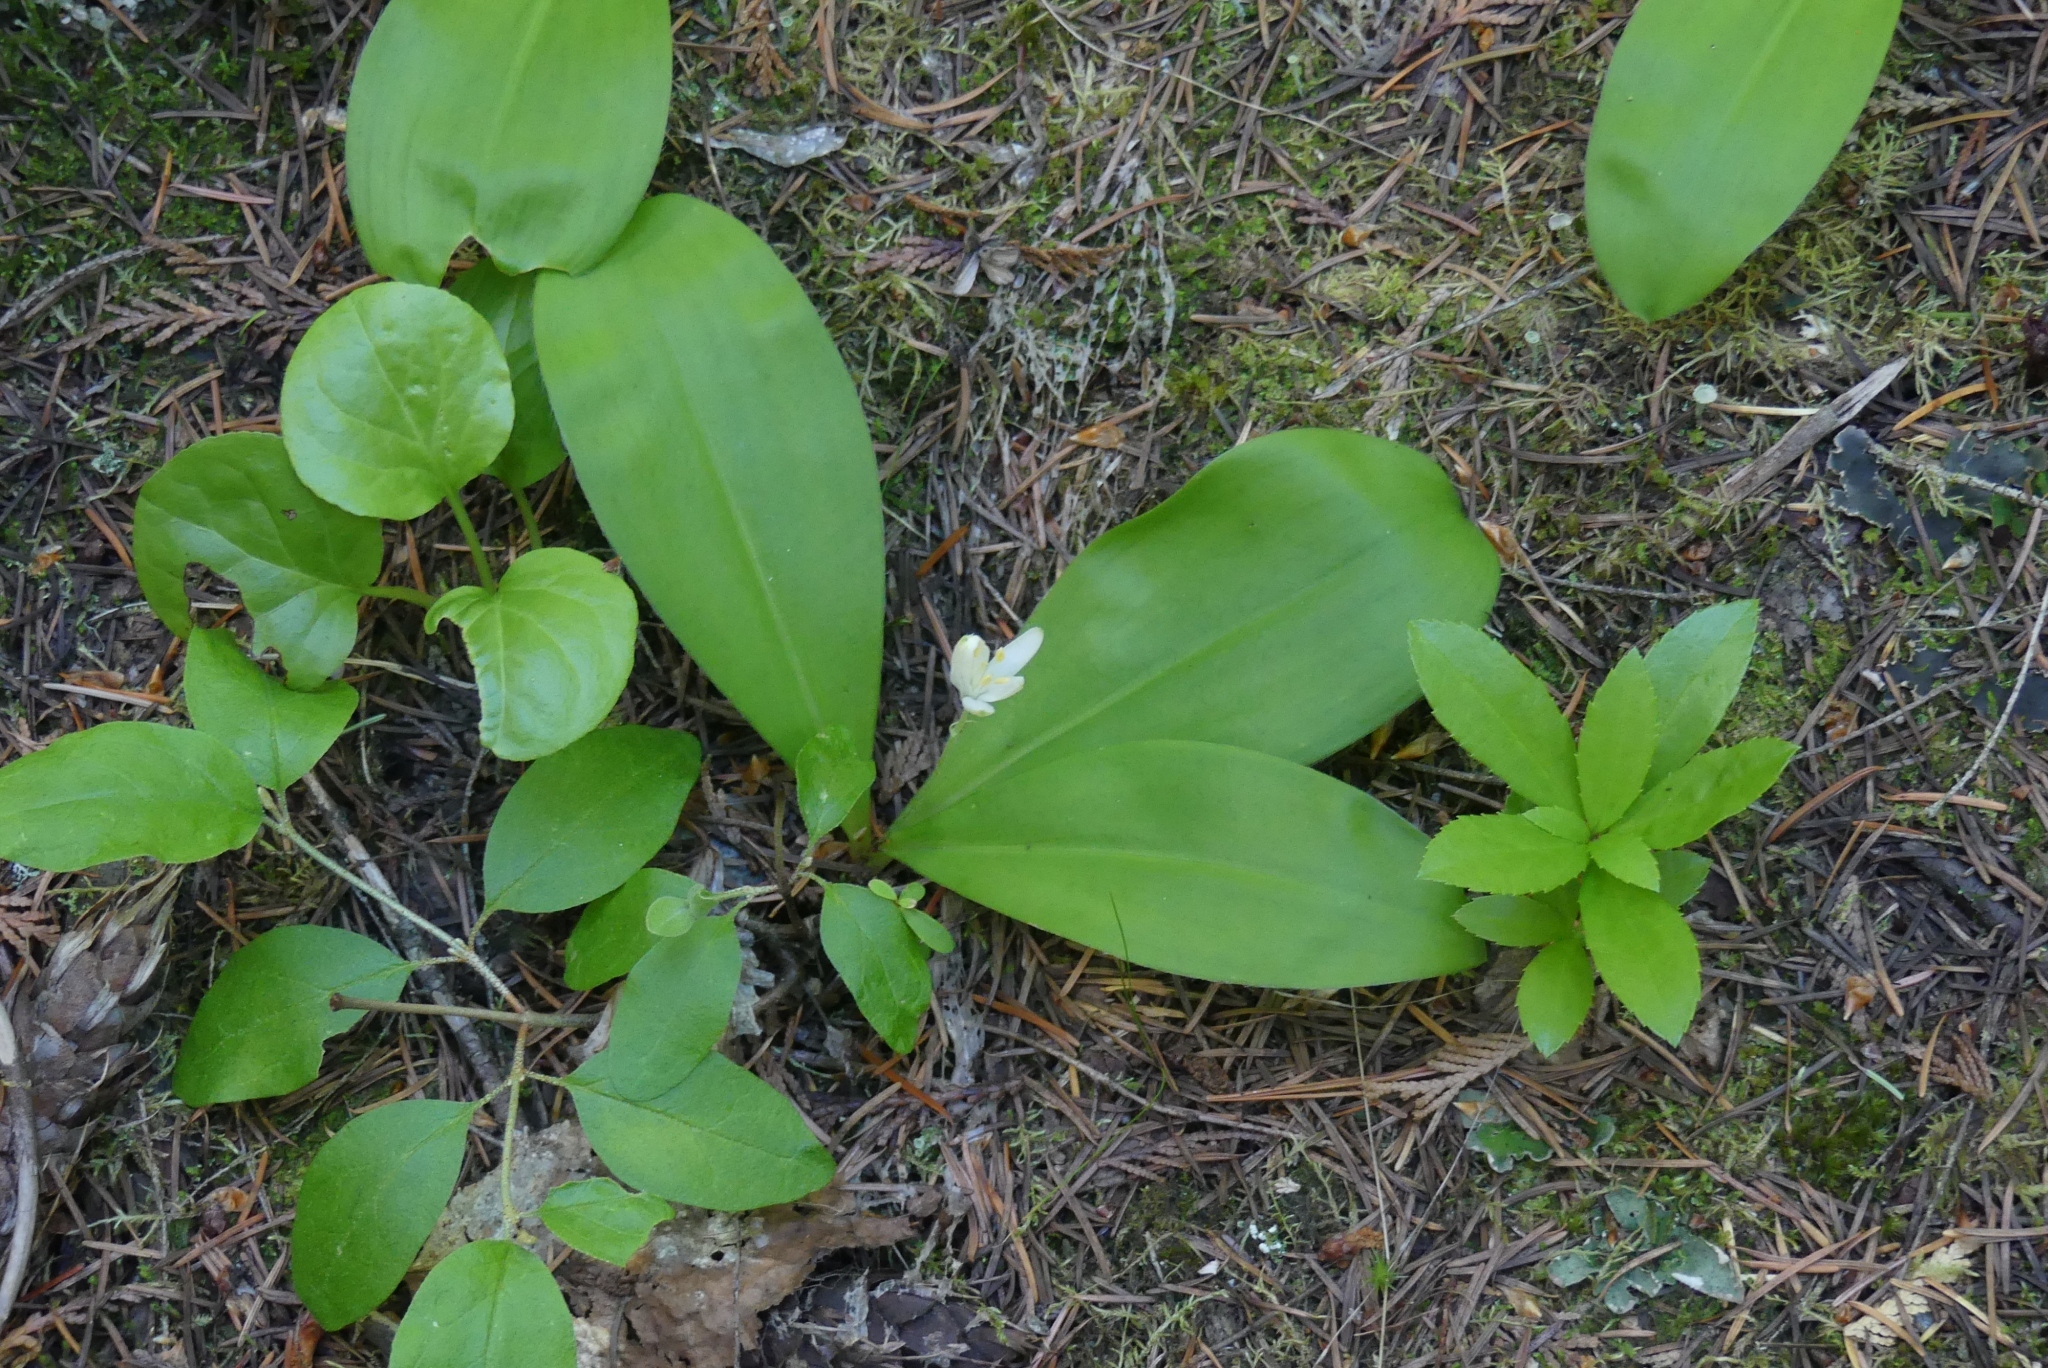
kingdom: Plantae
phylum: Tracheophyta
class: Liliopsida
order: Liliales
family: Liliaceae
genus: Clintonia
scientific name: Clintonia uniflora
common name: Queen's cup
